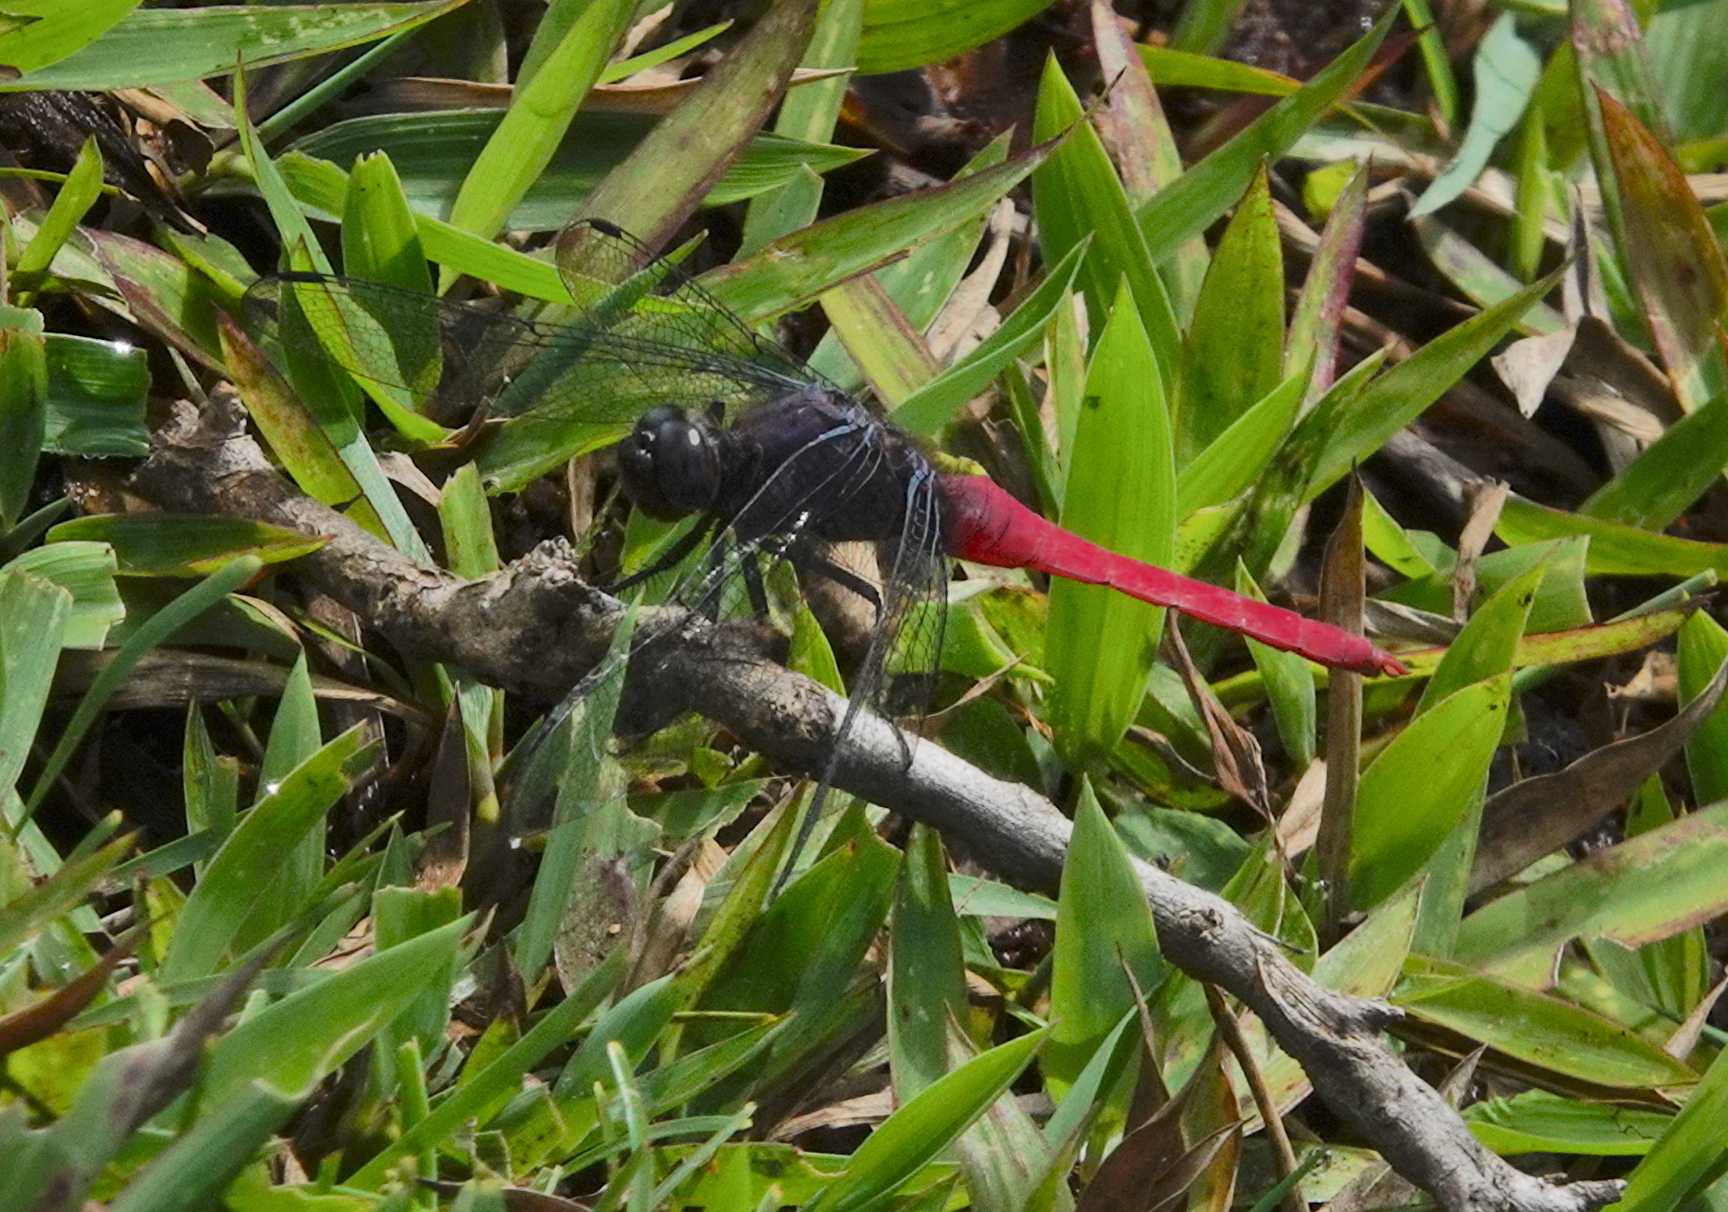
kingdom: Animalia
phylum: Arthropoda
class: Insecta
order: Odonata
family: Libellulidae
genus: Orthetrum
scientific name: Orthetrum pruinosum
